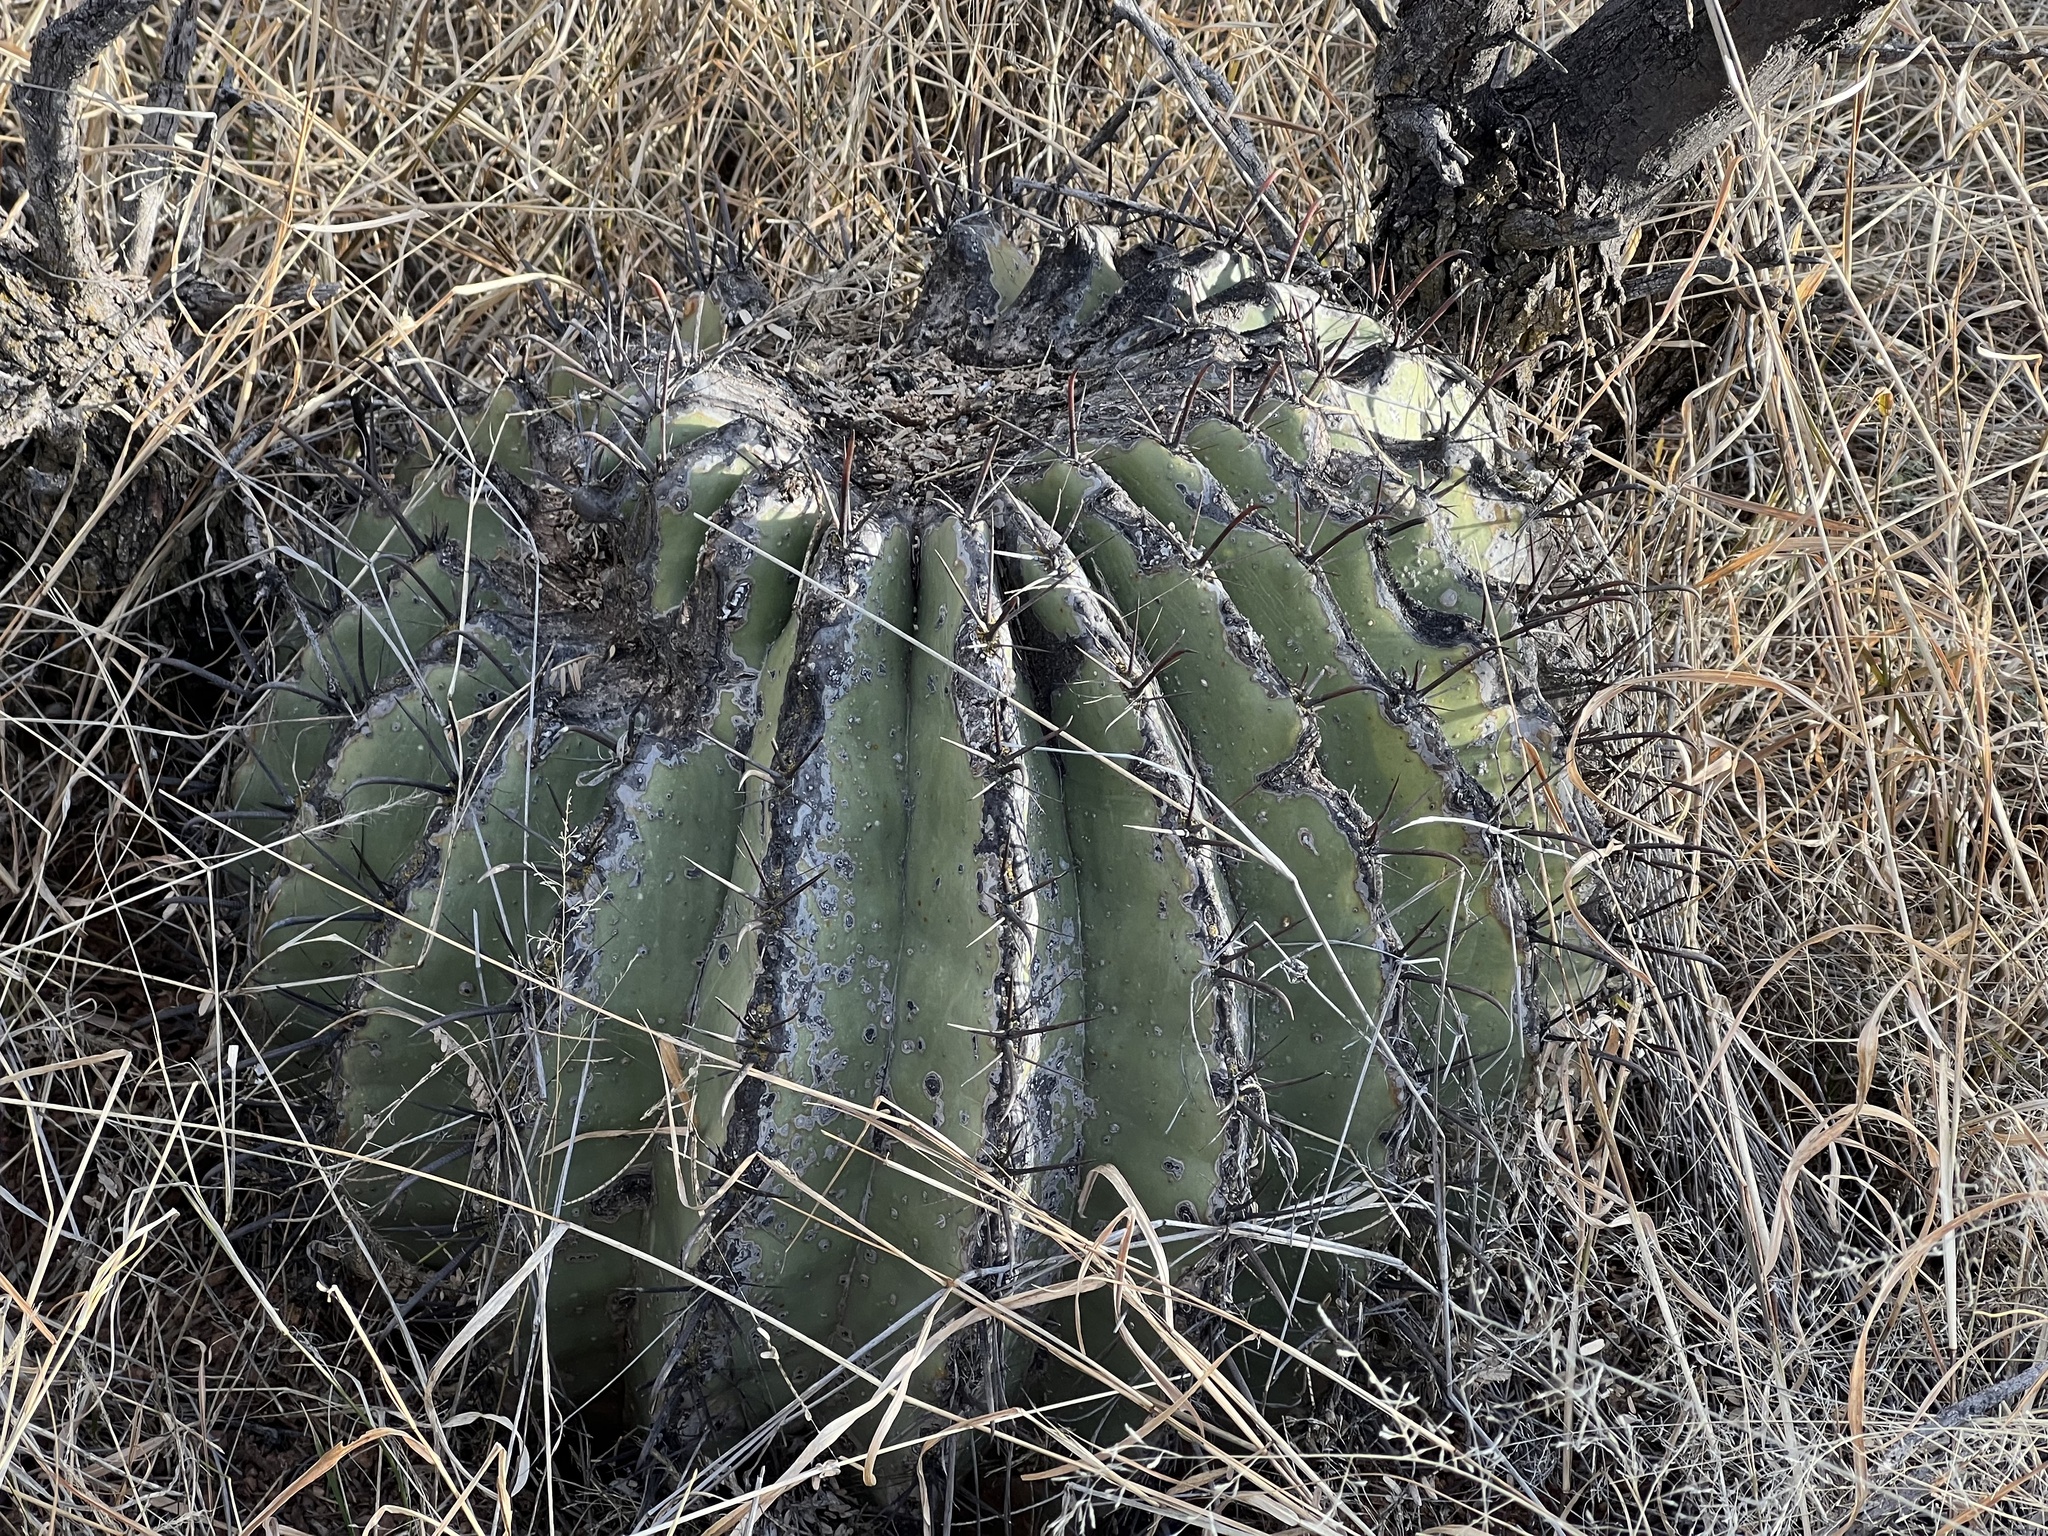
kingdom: Plantae
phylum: Tracheophyta
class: Magnoliopsida
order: Caryophyllales
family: Cactaceae
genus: Ferocactus
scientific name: Ferocactus wislizeni
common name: Candy barrel cactus
